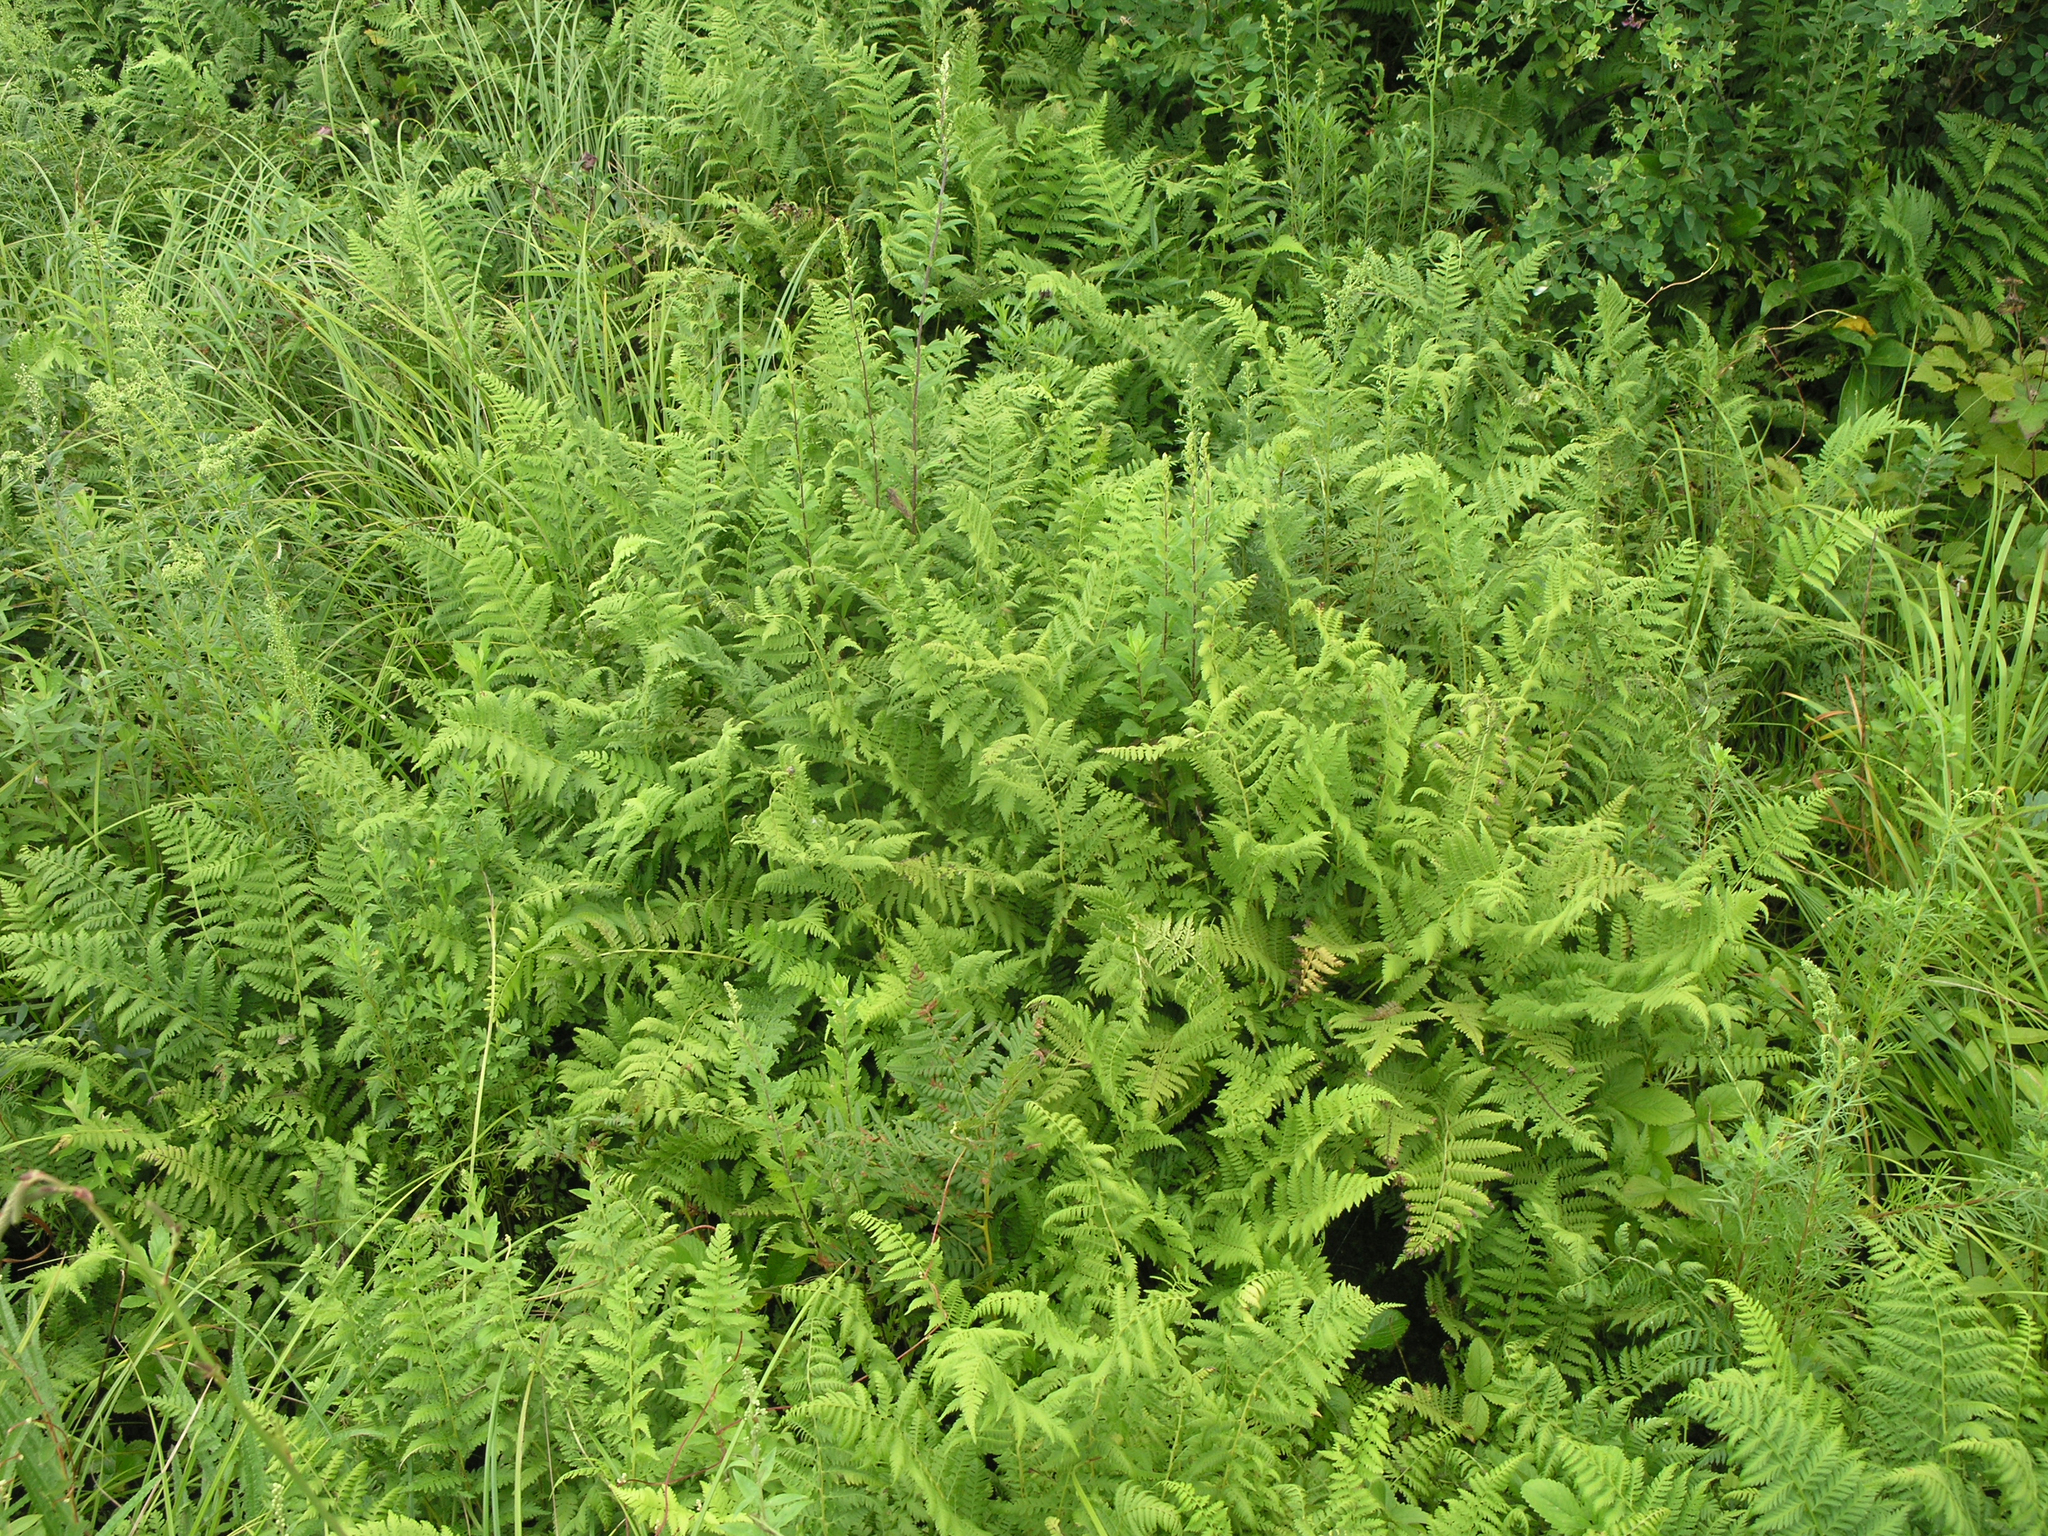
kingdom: Plantae
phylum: Tracheophyta
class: Polypodiopsida
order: Polypodiales
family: Athyriaceae
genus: Athyrium
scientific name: Athyrium yokoscense
